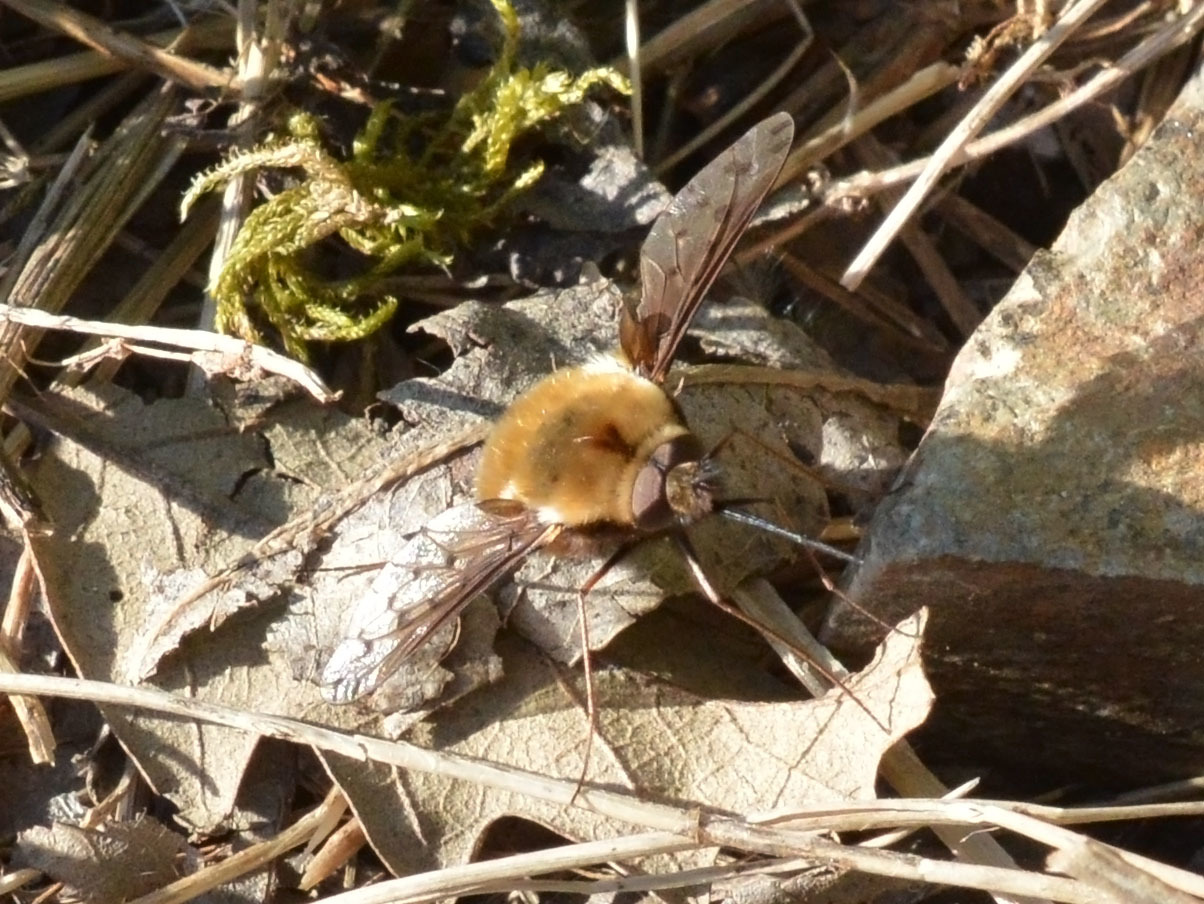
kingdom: Animalia
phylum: Arthropoda
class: Insecta
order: Diptera
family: Bombyliidae
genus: Bombylius
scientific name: Bombylius discolor
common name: Dotted bee-fly
